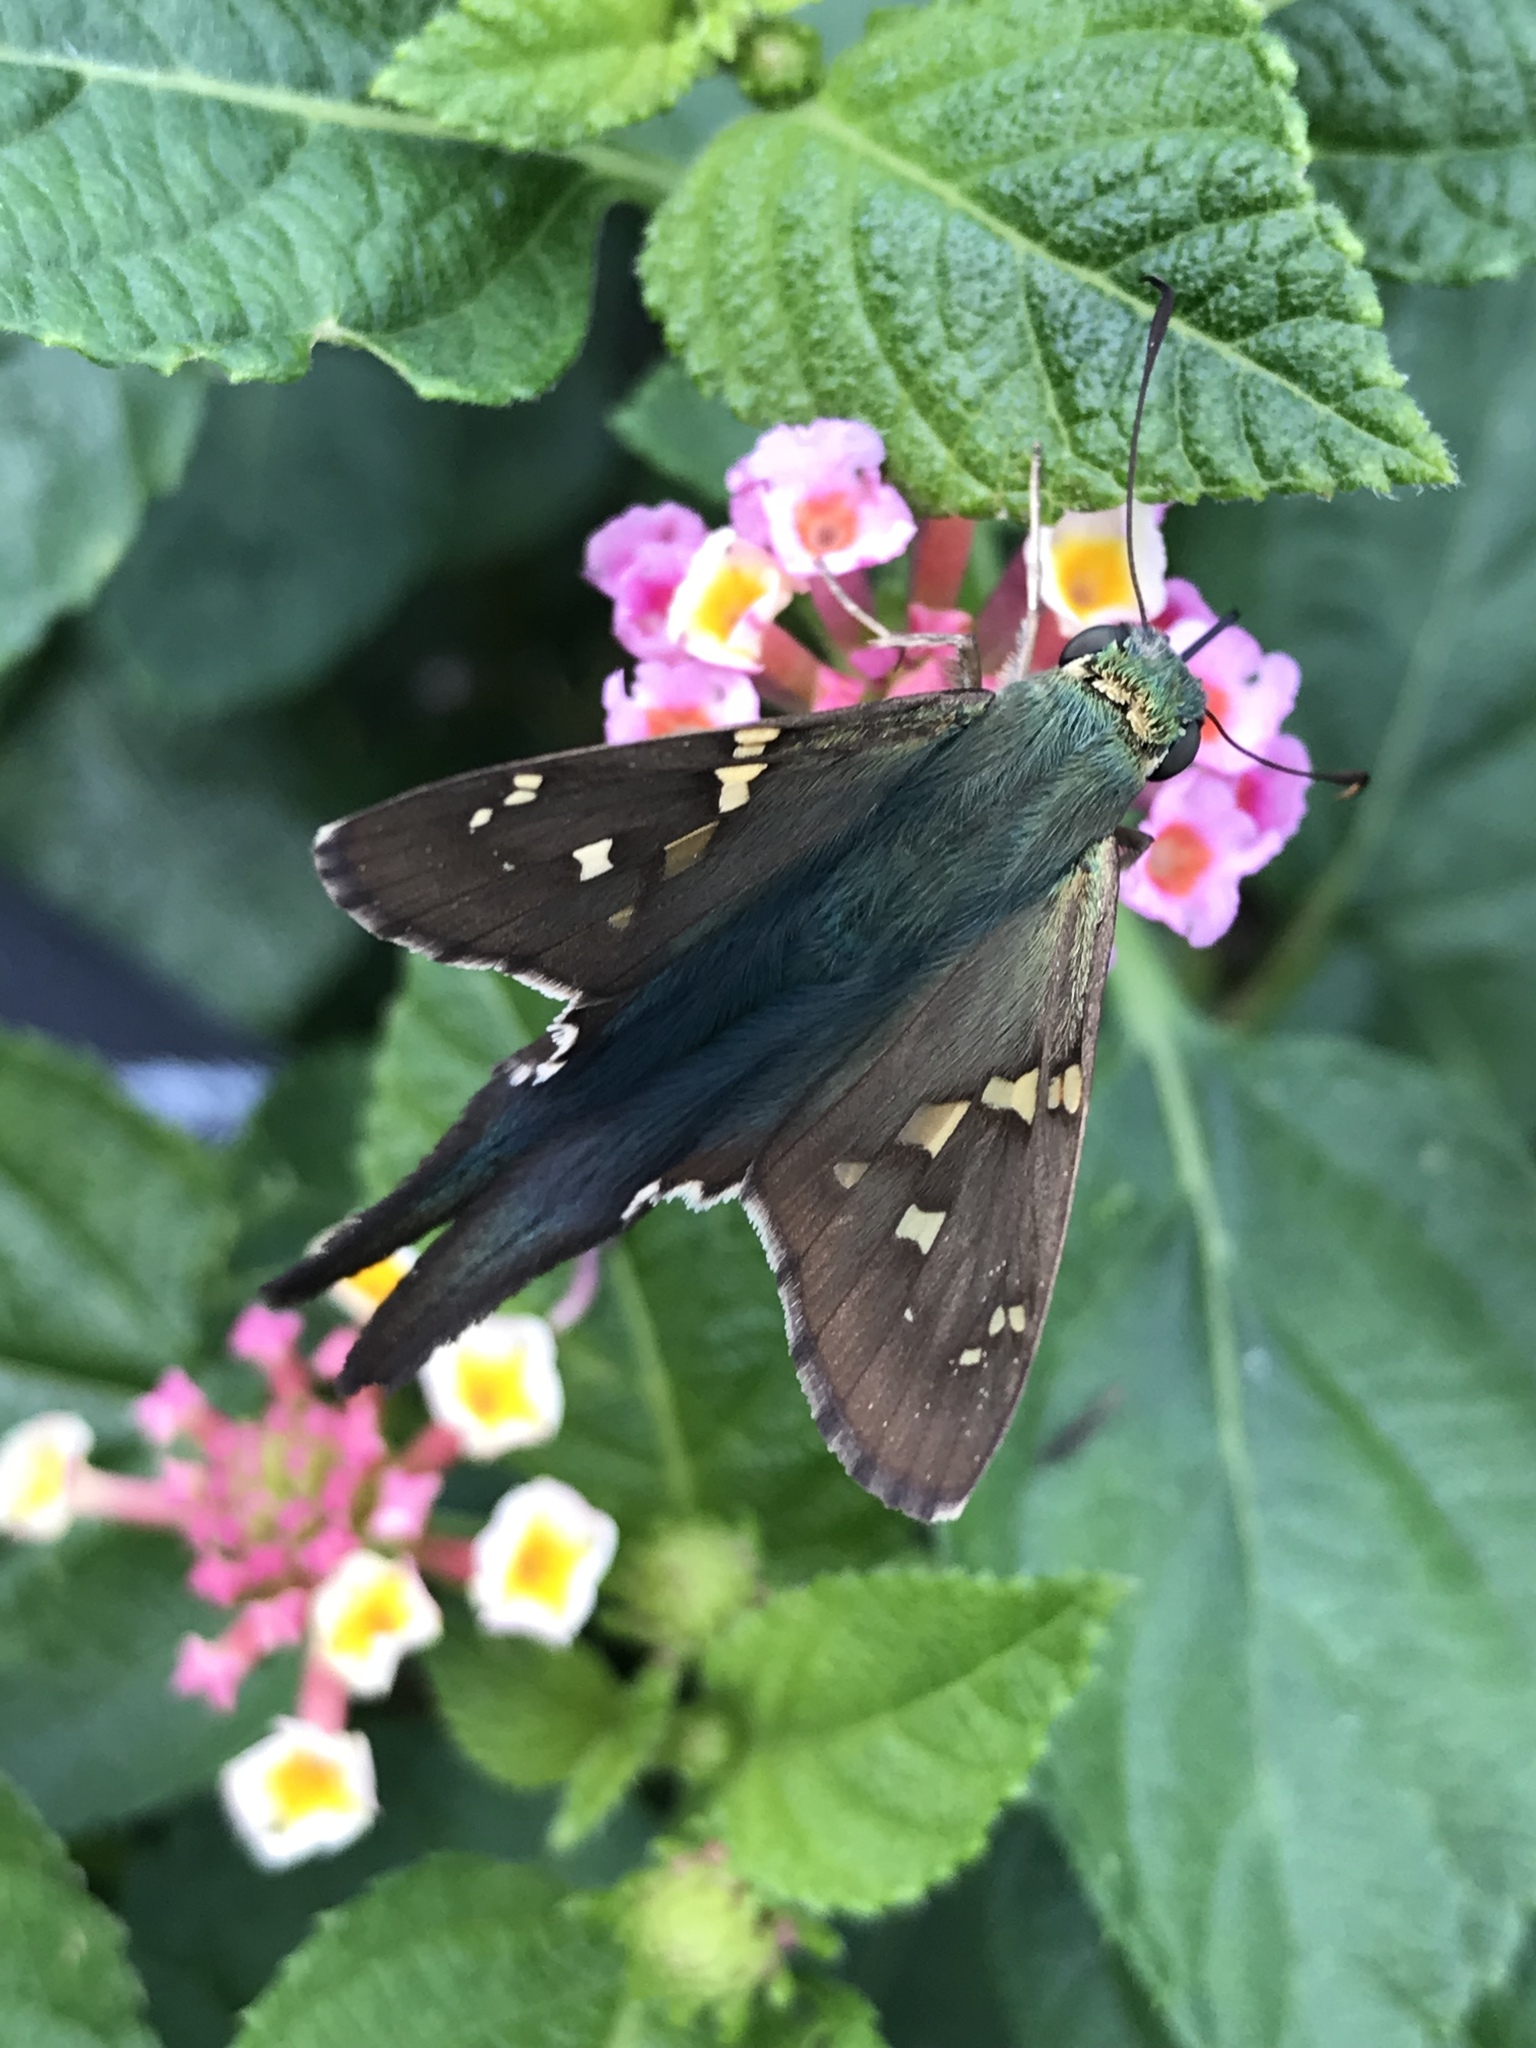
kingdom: Animalia
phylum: Arthropoda
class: Insecta
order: Lepidoptera
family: Hesperiidae
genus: Urbanus
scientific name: Urbanus proteus
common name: Long-tailed skipper
